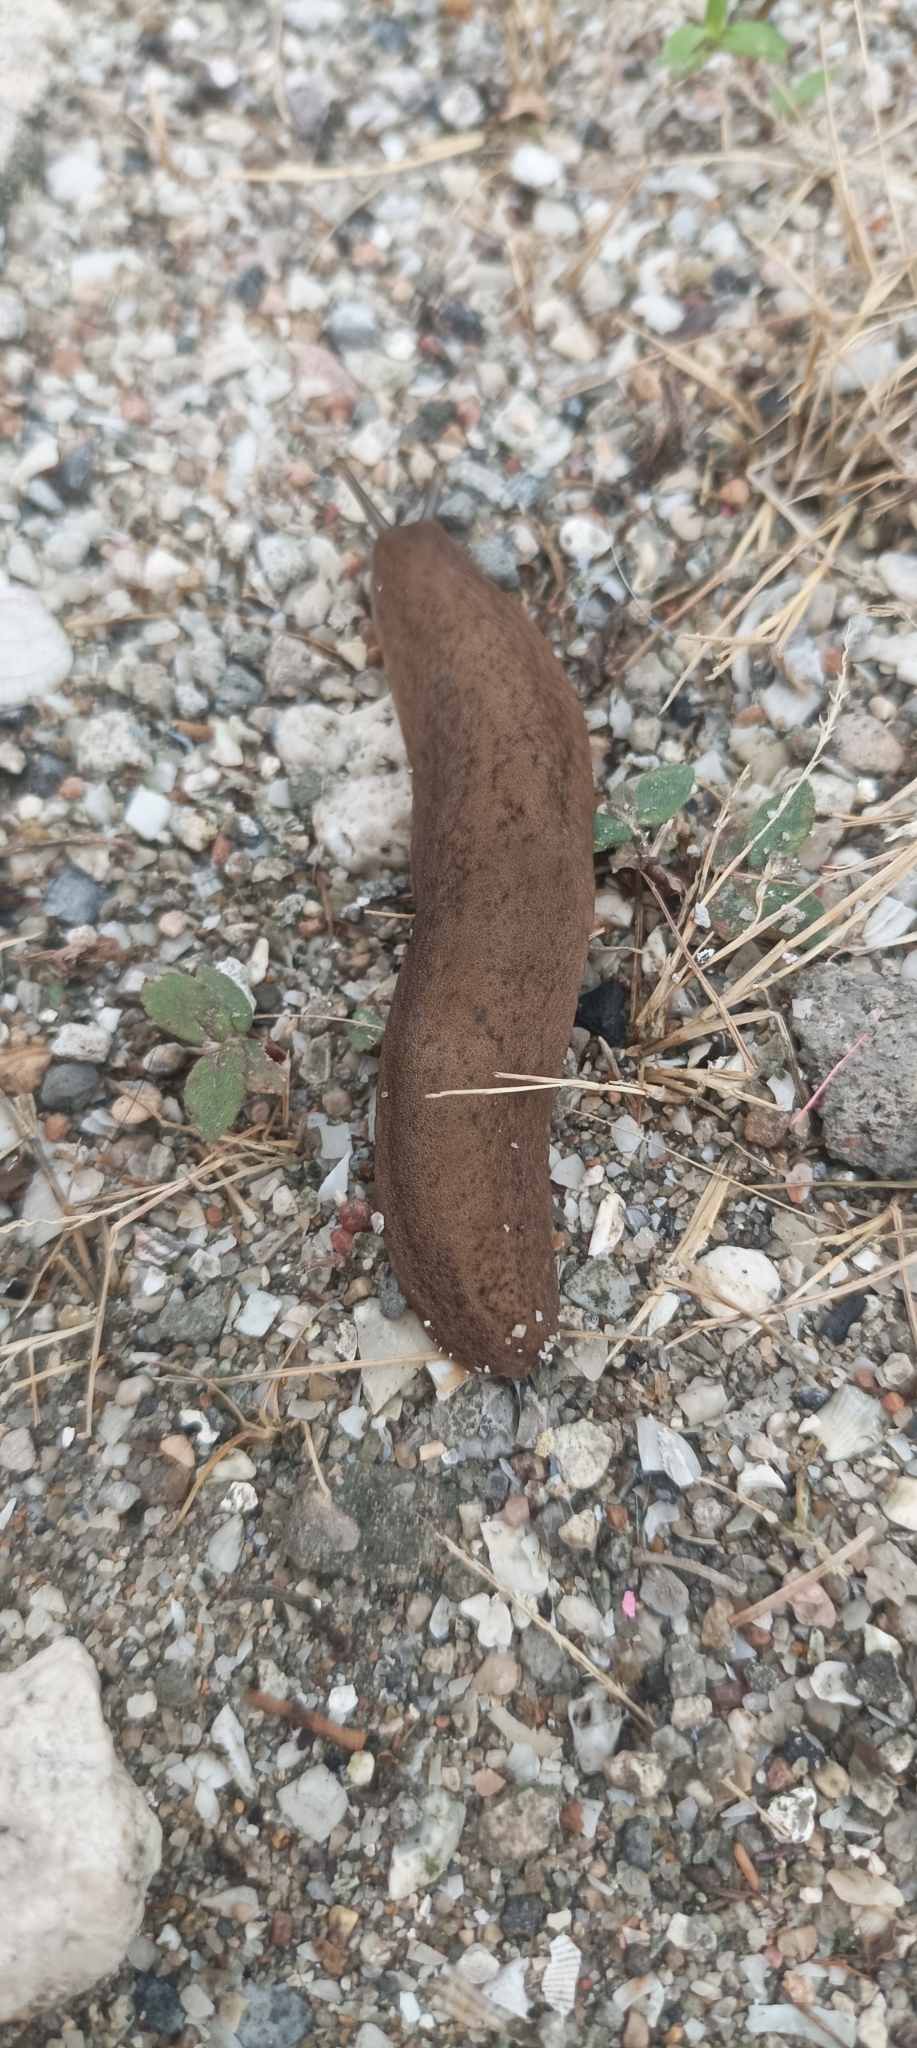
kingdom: Animalia
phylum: Mollusca
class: Gastropoda
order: Systellommatophora
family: Veronicellidae
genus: Sarasinula
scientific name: Sarasinula plebeia
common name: Caribbean leatherleaf
